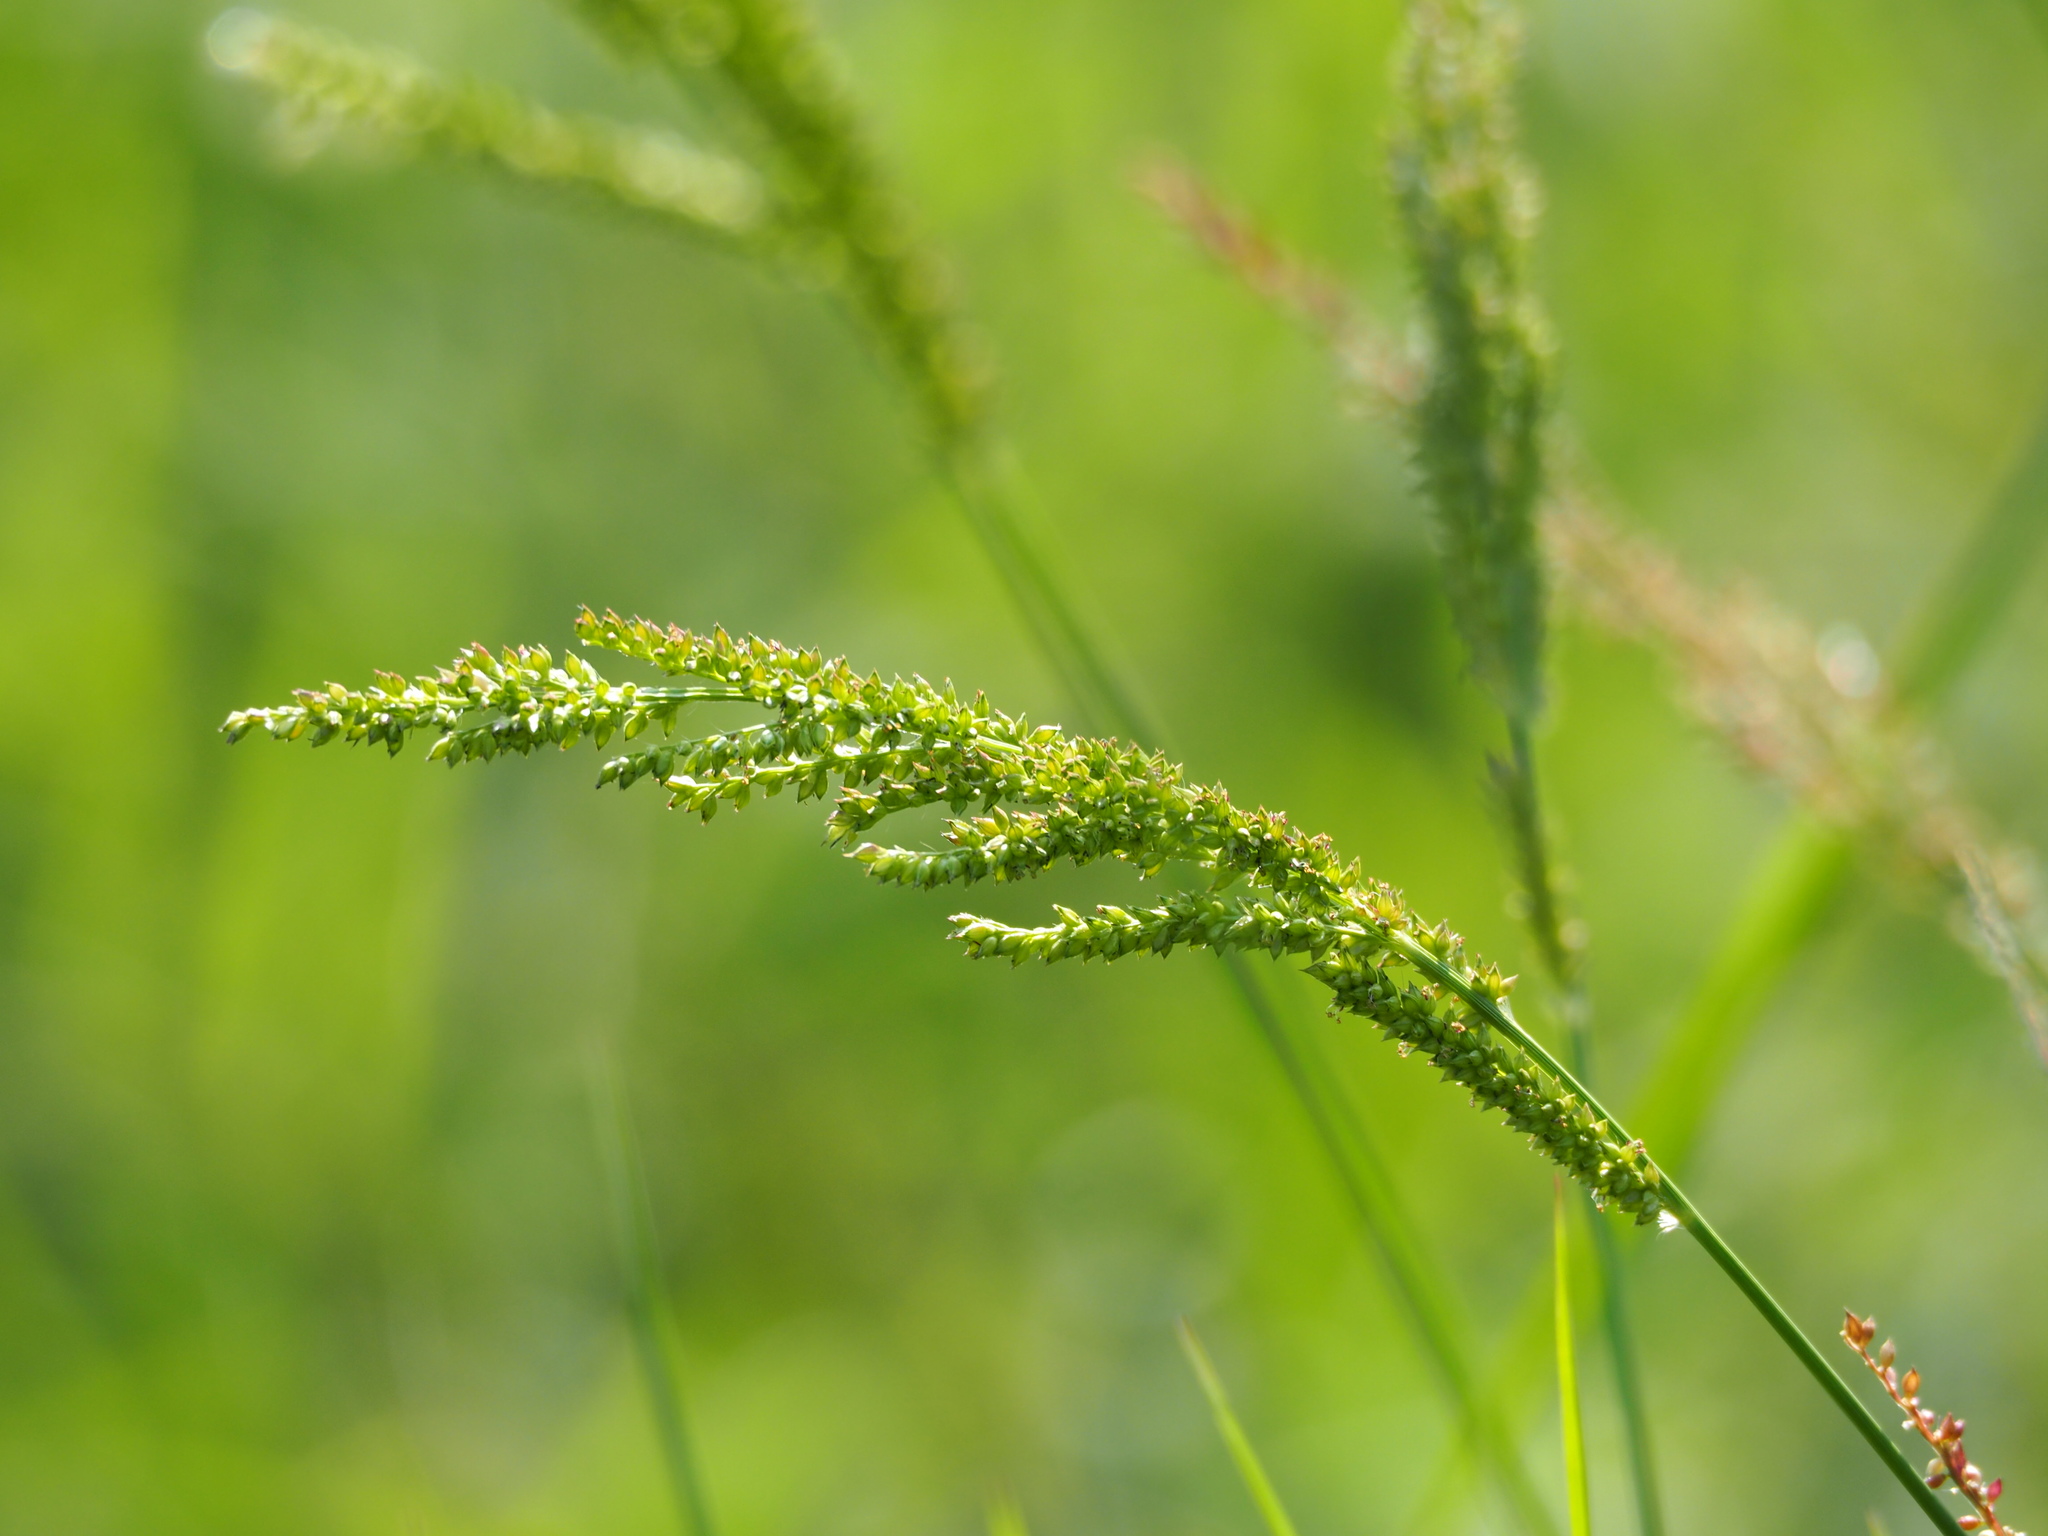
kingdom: Plantae
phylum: Tracheophyta
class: Liliopsida
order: Poales
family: Poaceae
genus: Echinochloa
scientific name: Echinochloa colonum
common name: Jungle rice
